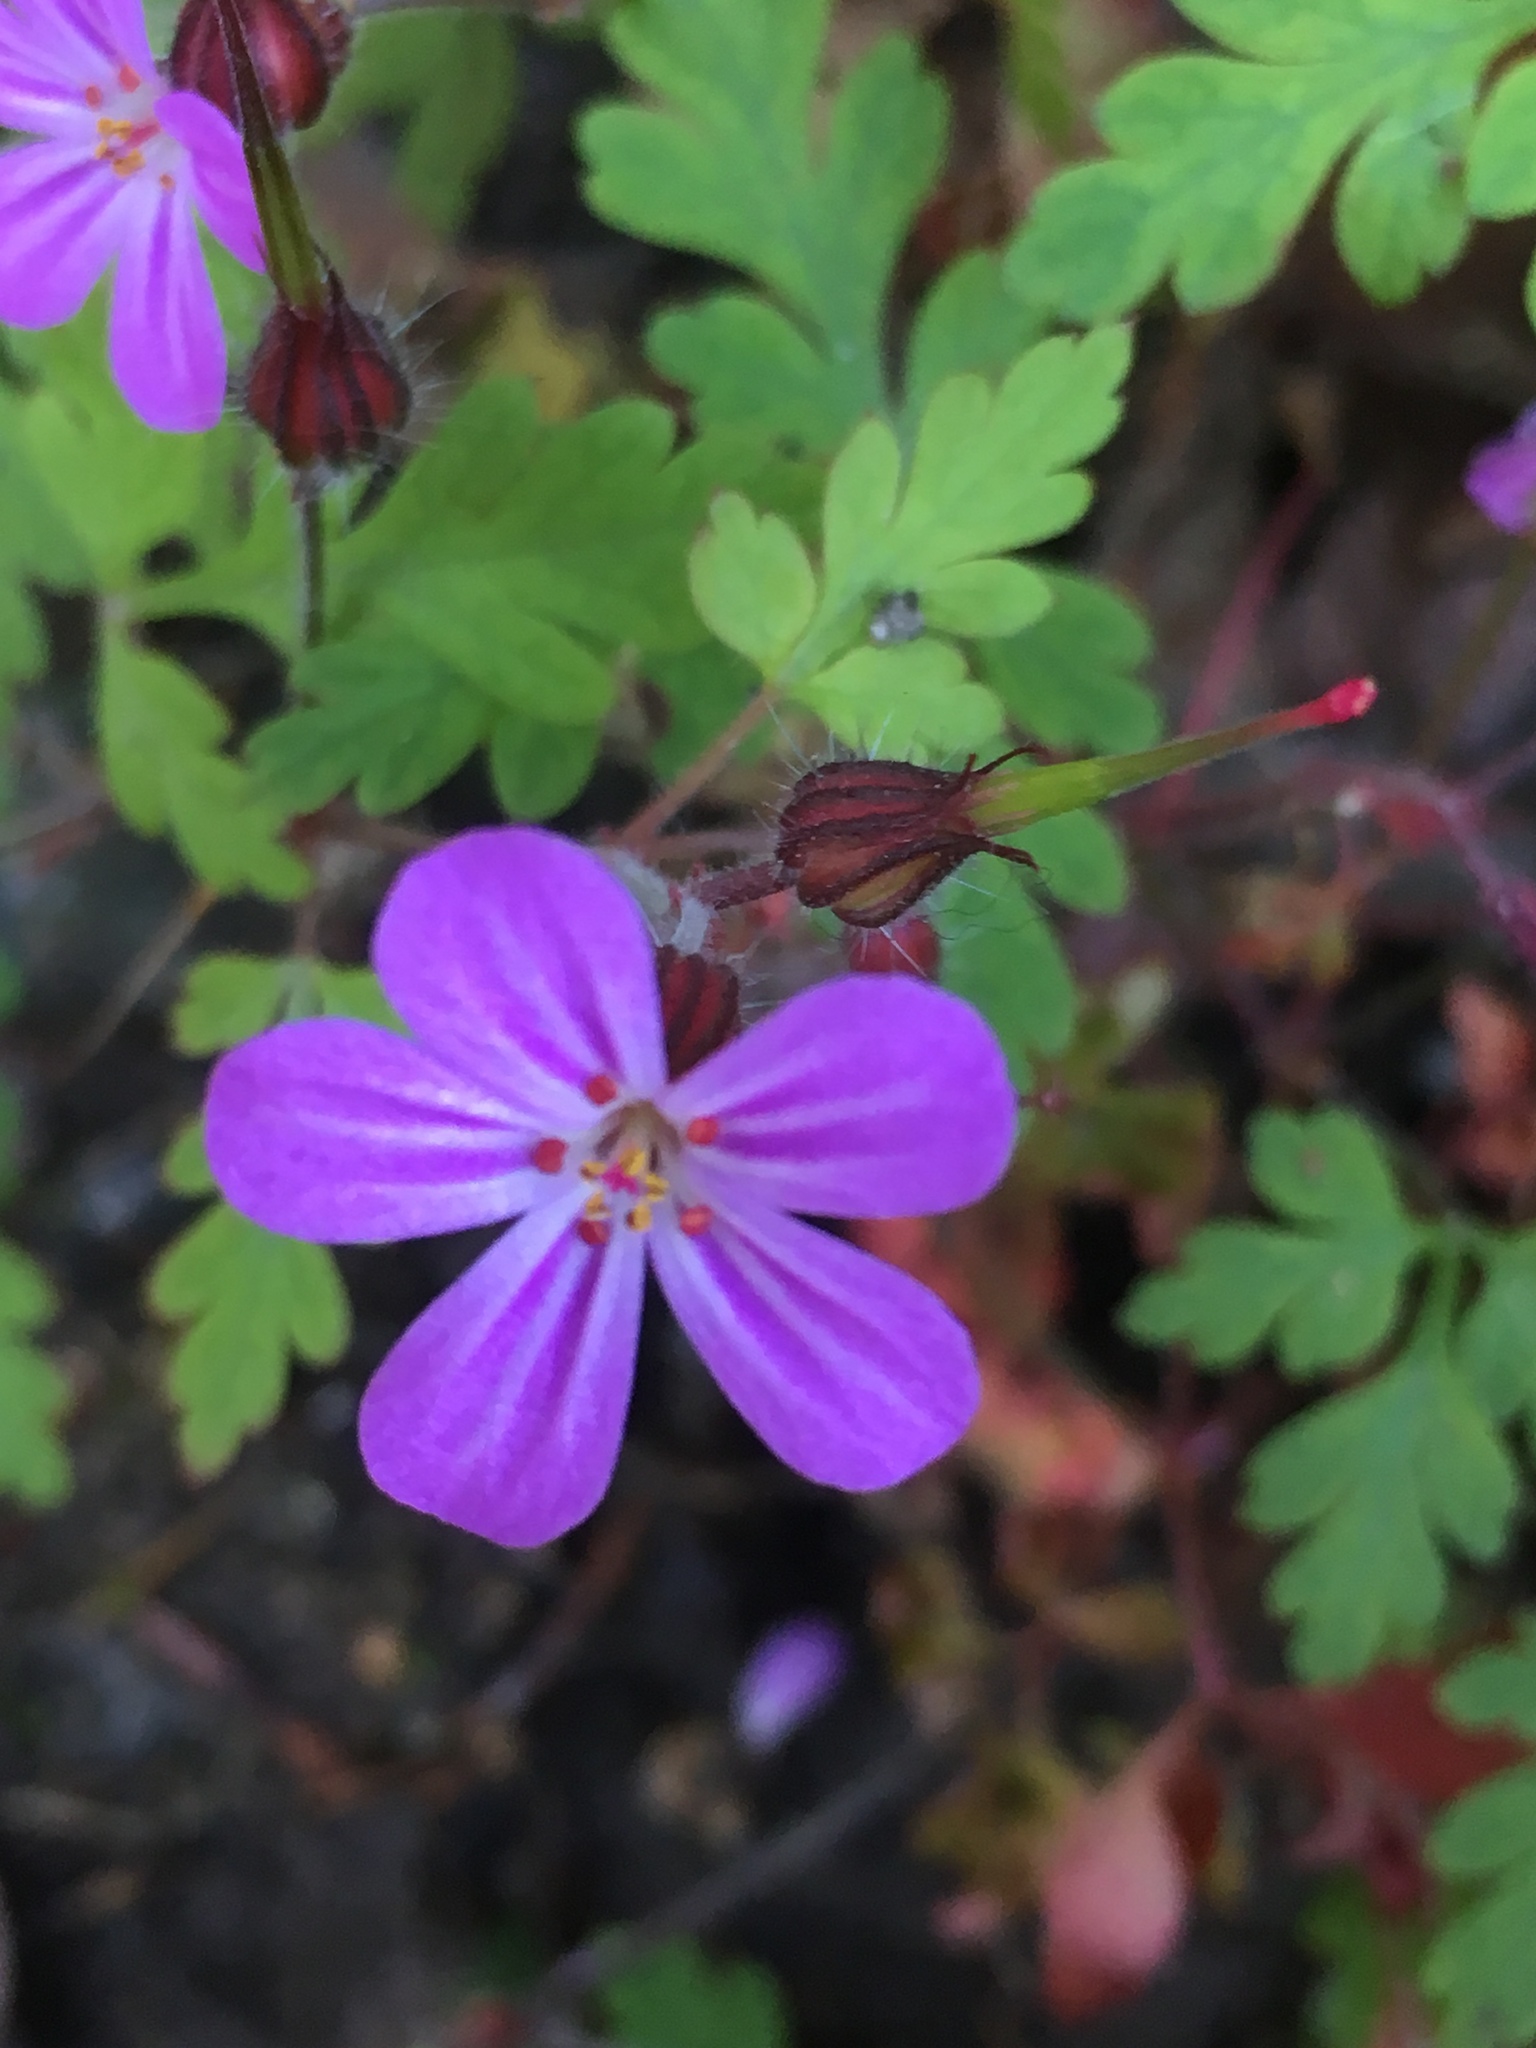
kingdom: Plantae
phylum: Tracheophyta
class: Magnoliopsida
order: Geraniales
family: Geraniaceae
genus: Geranium
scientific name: Geranium robertianum
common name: Herb-robert
